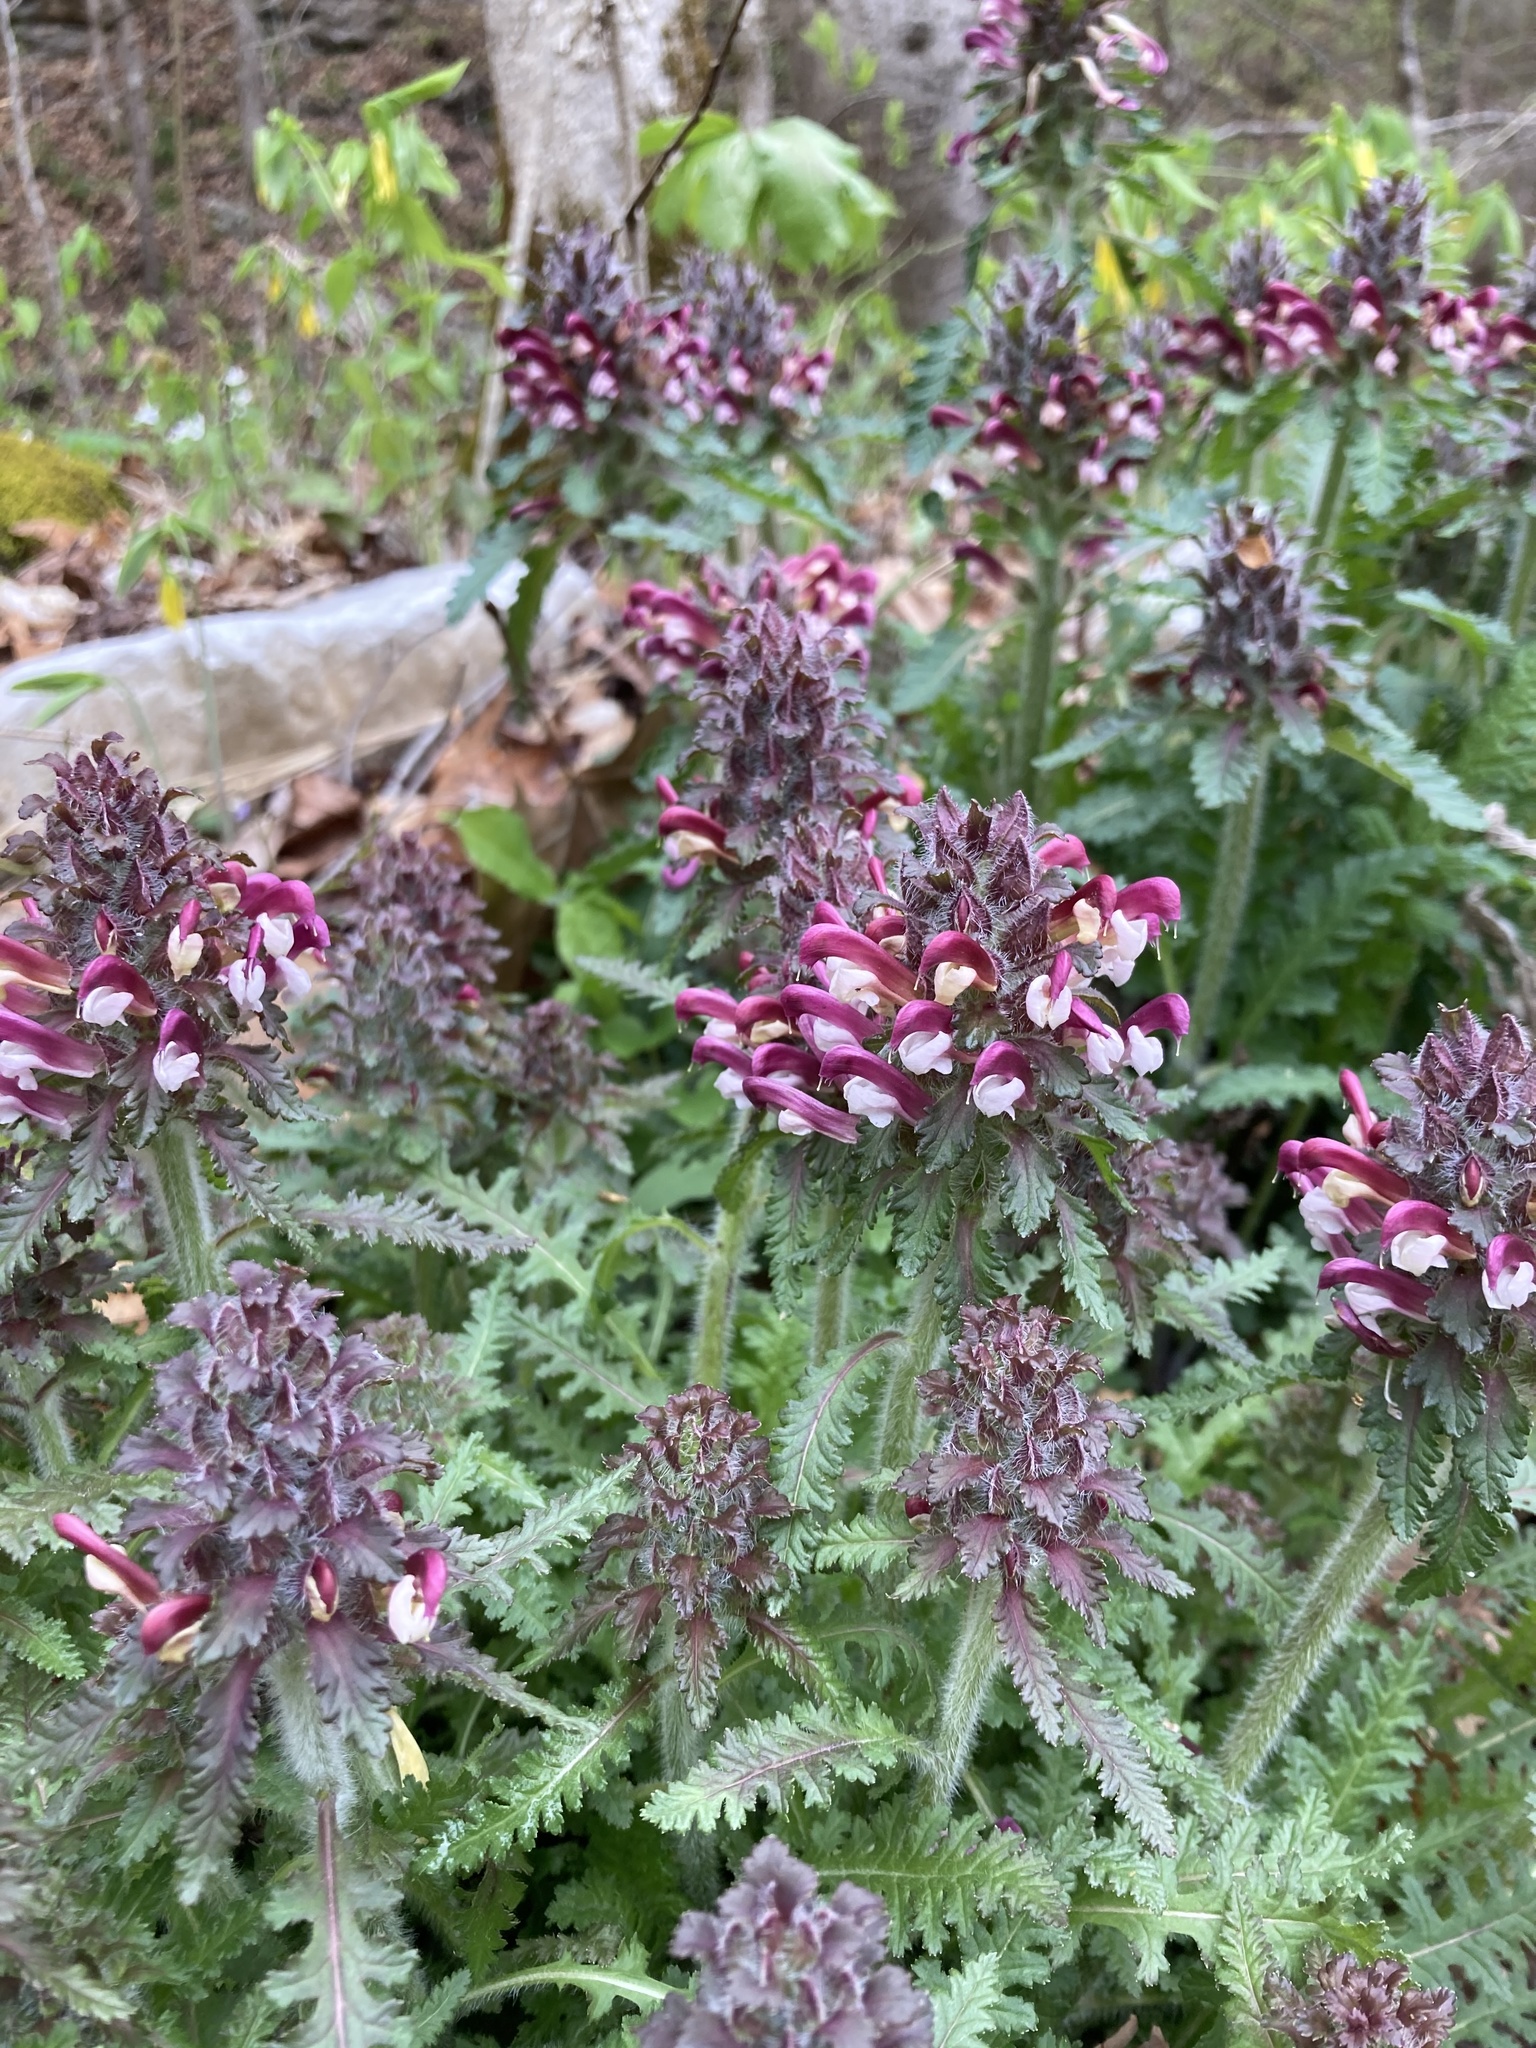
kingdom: Plantae
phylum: Tracheophyta
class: Magnoliopsida
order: Lamiales
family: Orobanchaceae
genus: Pedicularis
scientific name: Pedicularis canadensis
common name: Early lousewort
